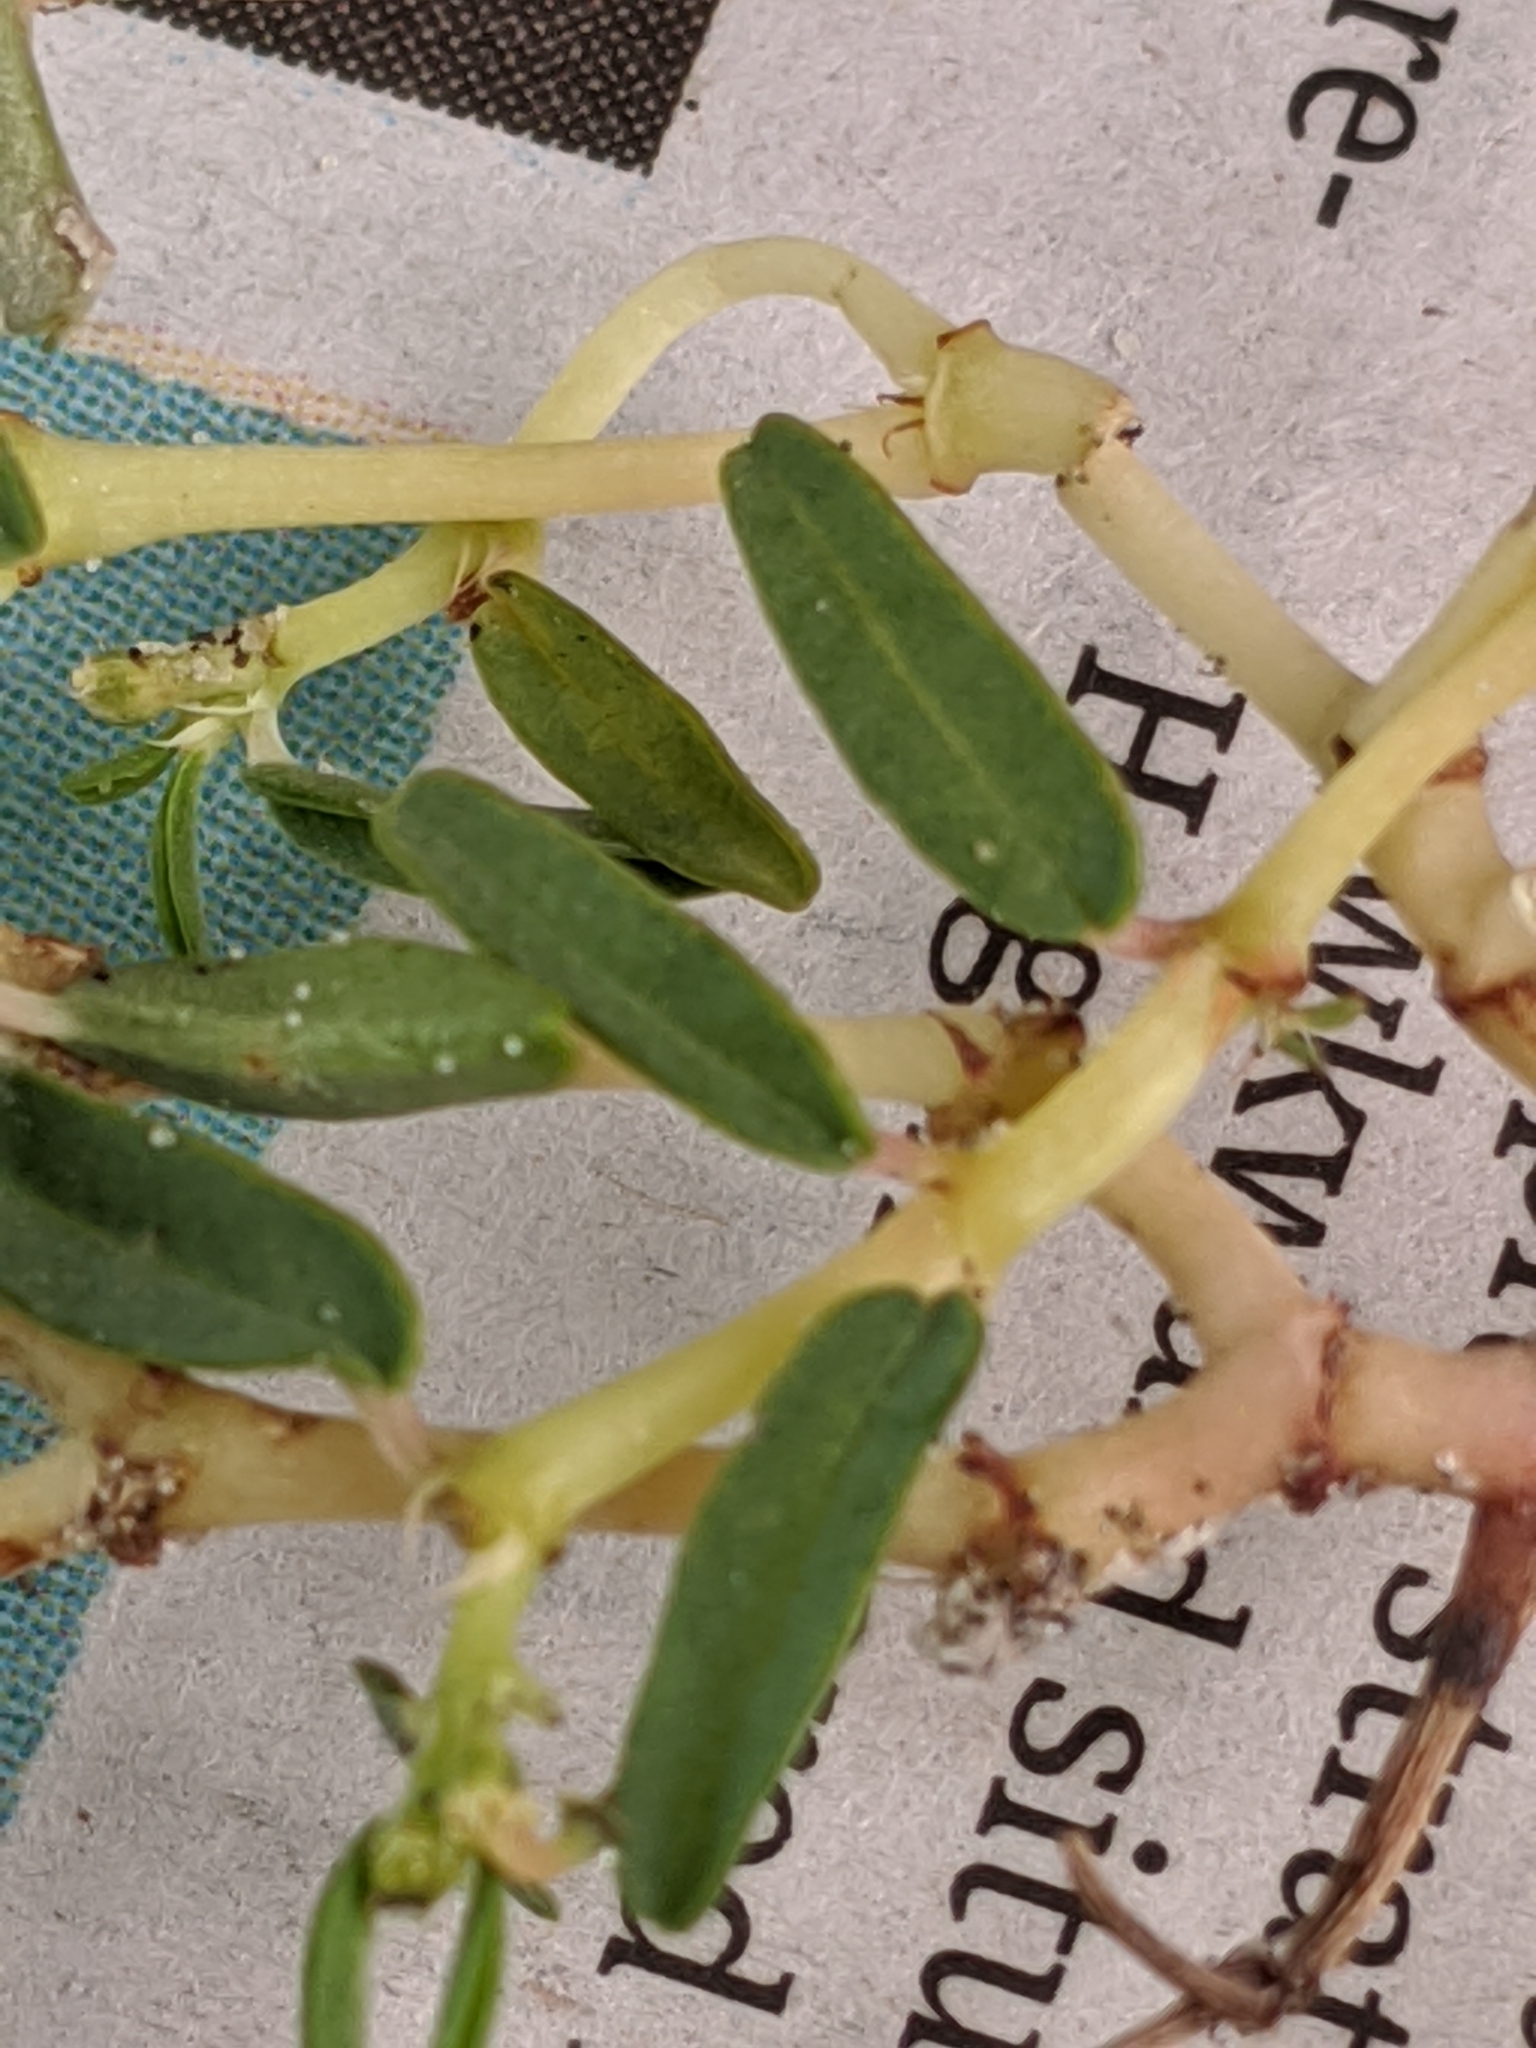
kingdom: Plantae
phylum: Tracheophyta
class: Magnoliopsida
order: Malpighiales
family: Euphorbiaceae
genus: Euphorbia
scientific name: Euphorbia polygonifolia
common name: Knotweed spurge
